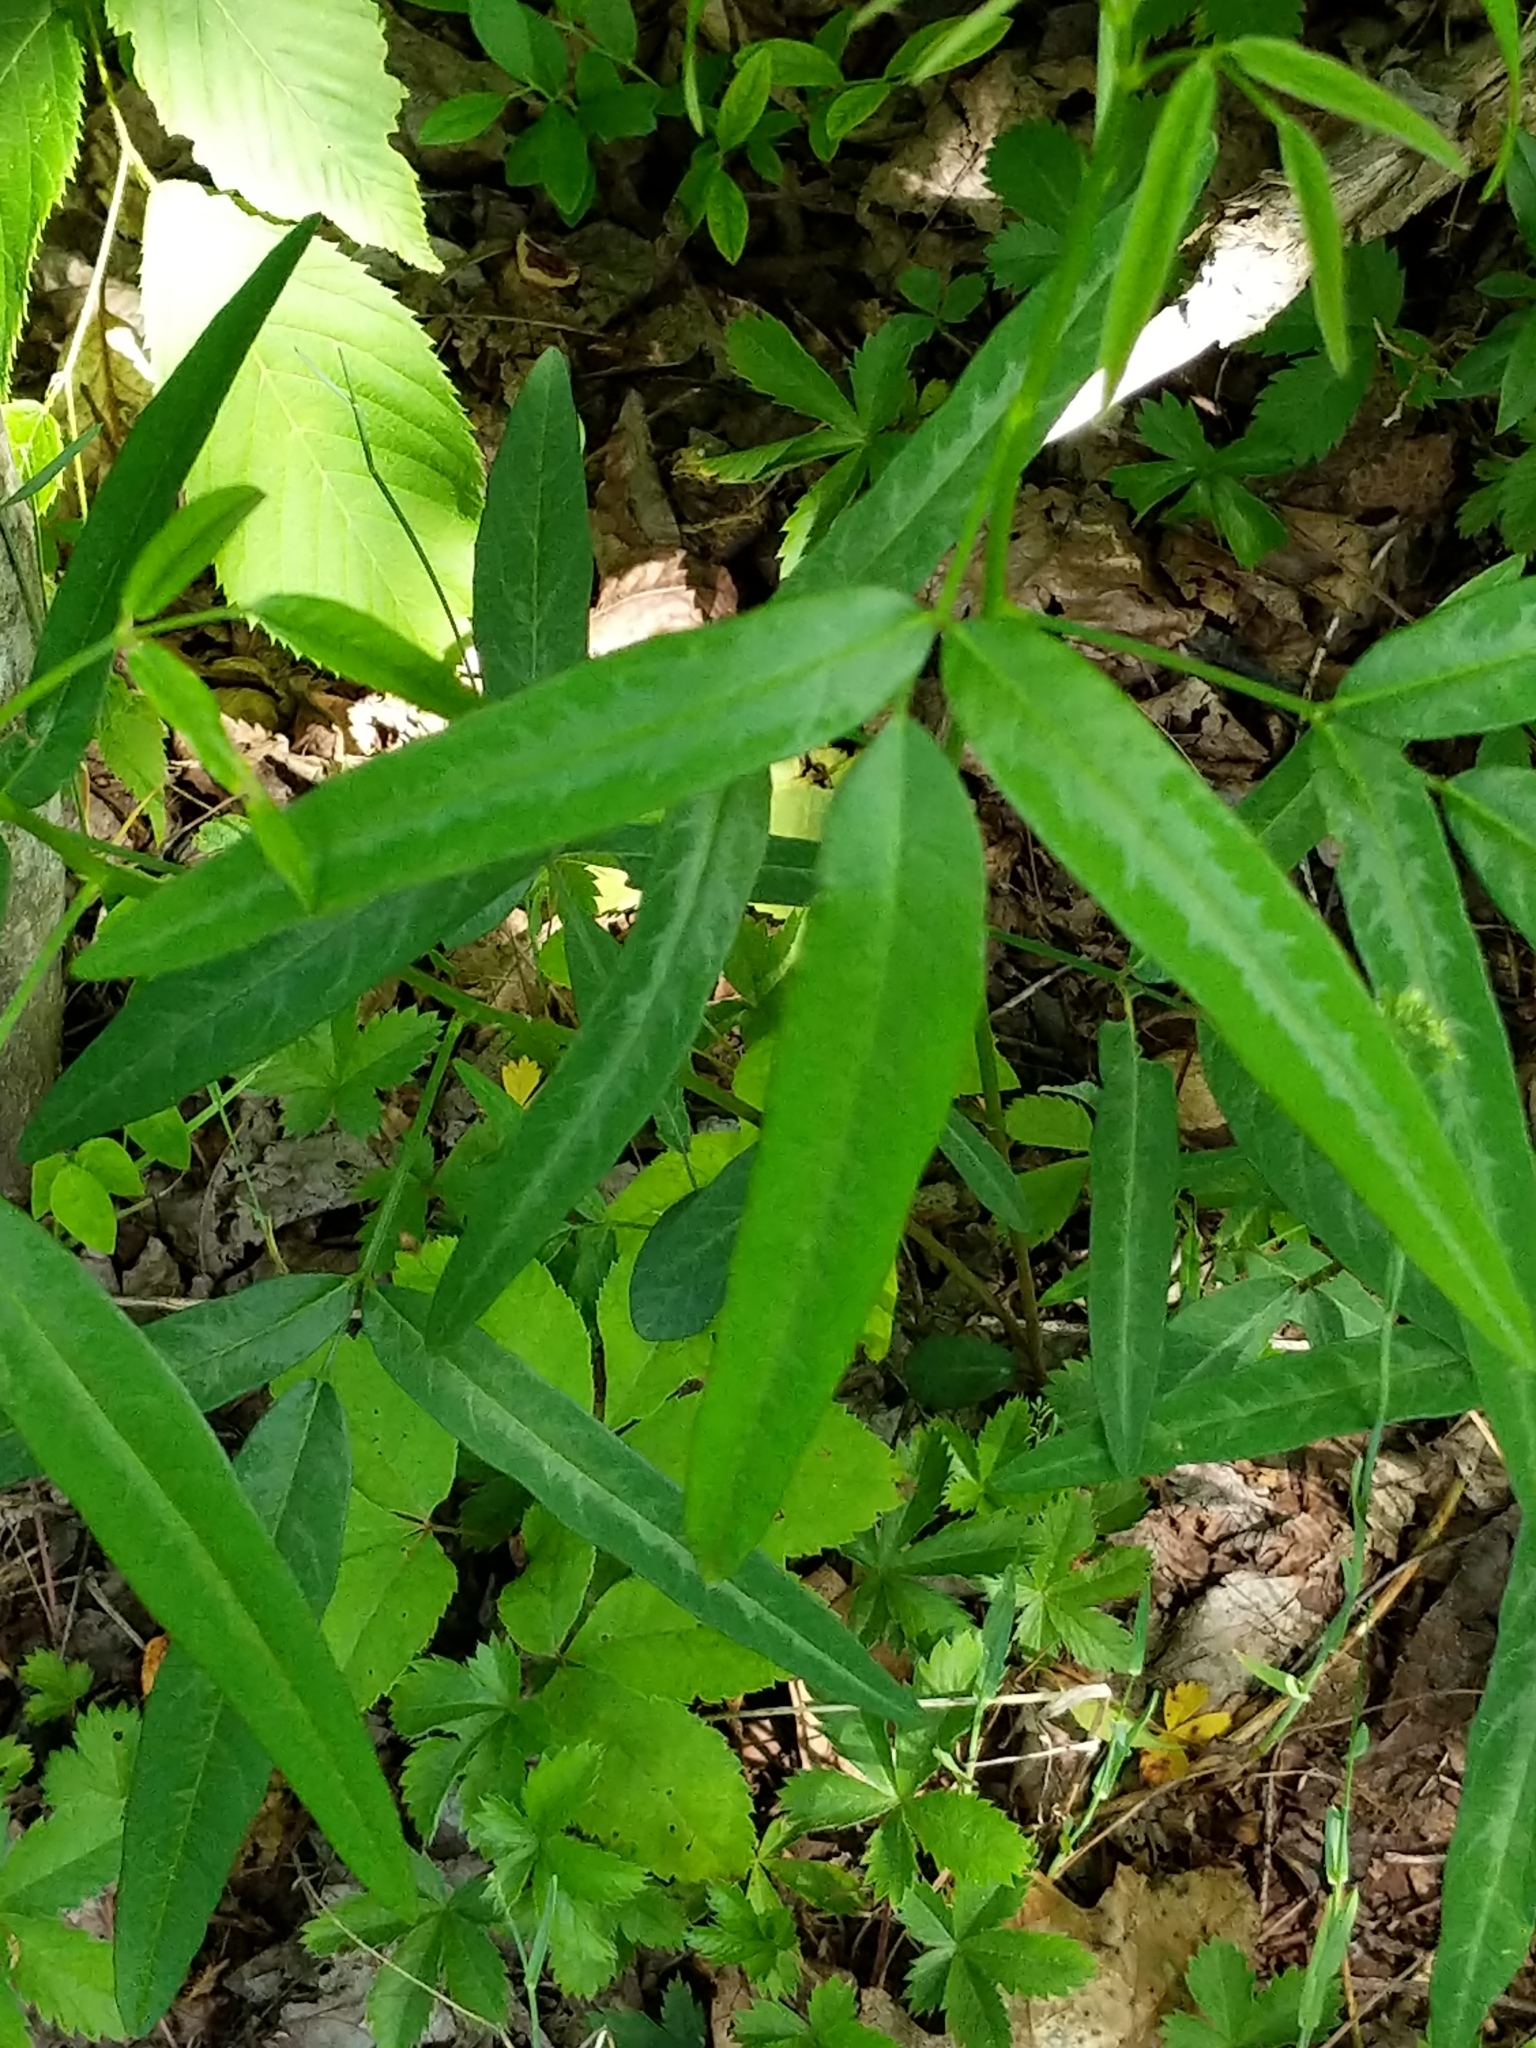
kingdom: Plantae
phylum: Tracheophyta
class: Magnoliopsida
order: Fabales
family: Fabaceae
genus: Desmodium
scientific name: Desmodium paniculatum
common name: Panicled tick-clover
